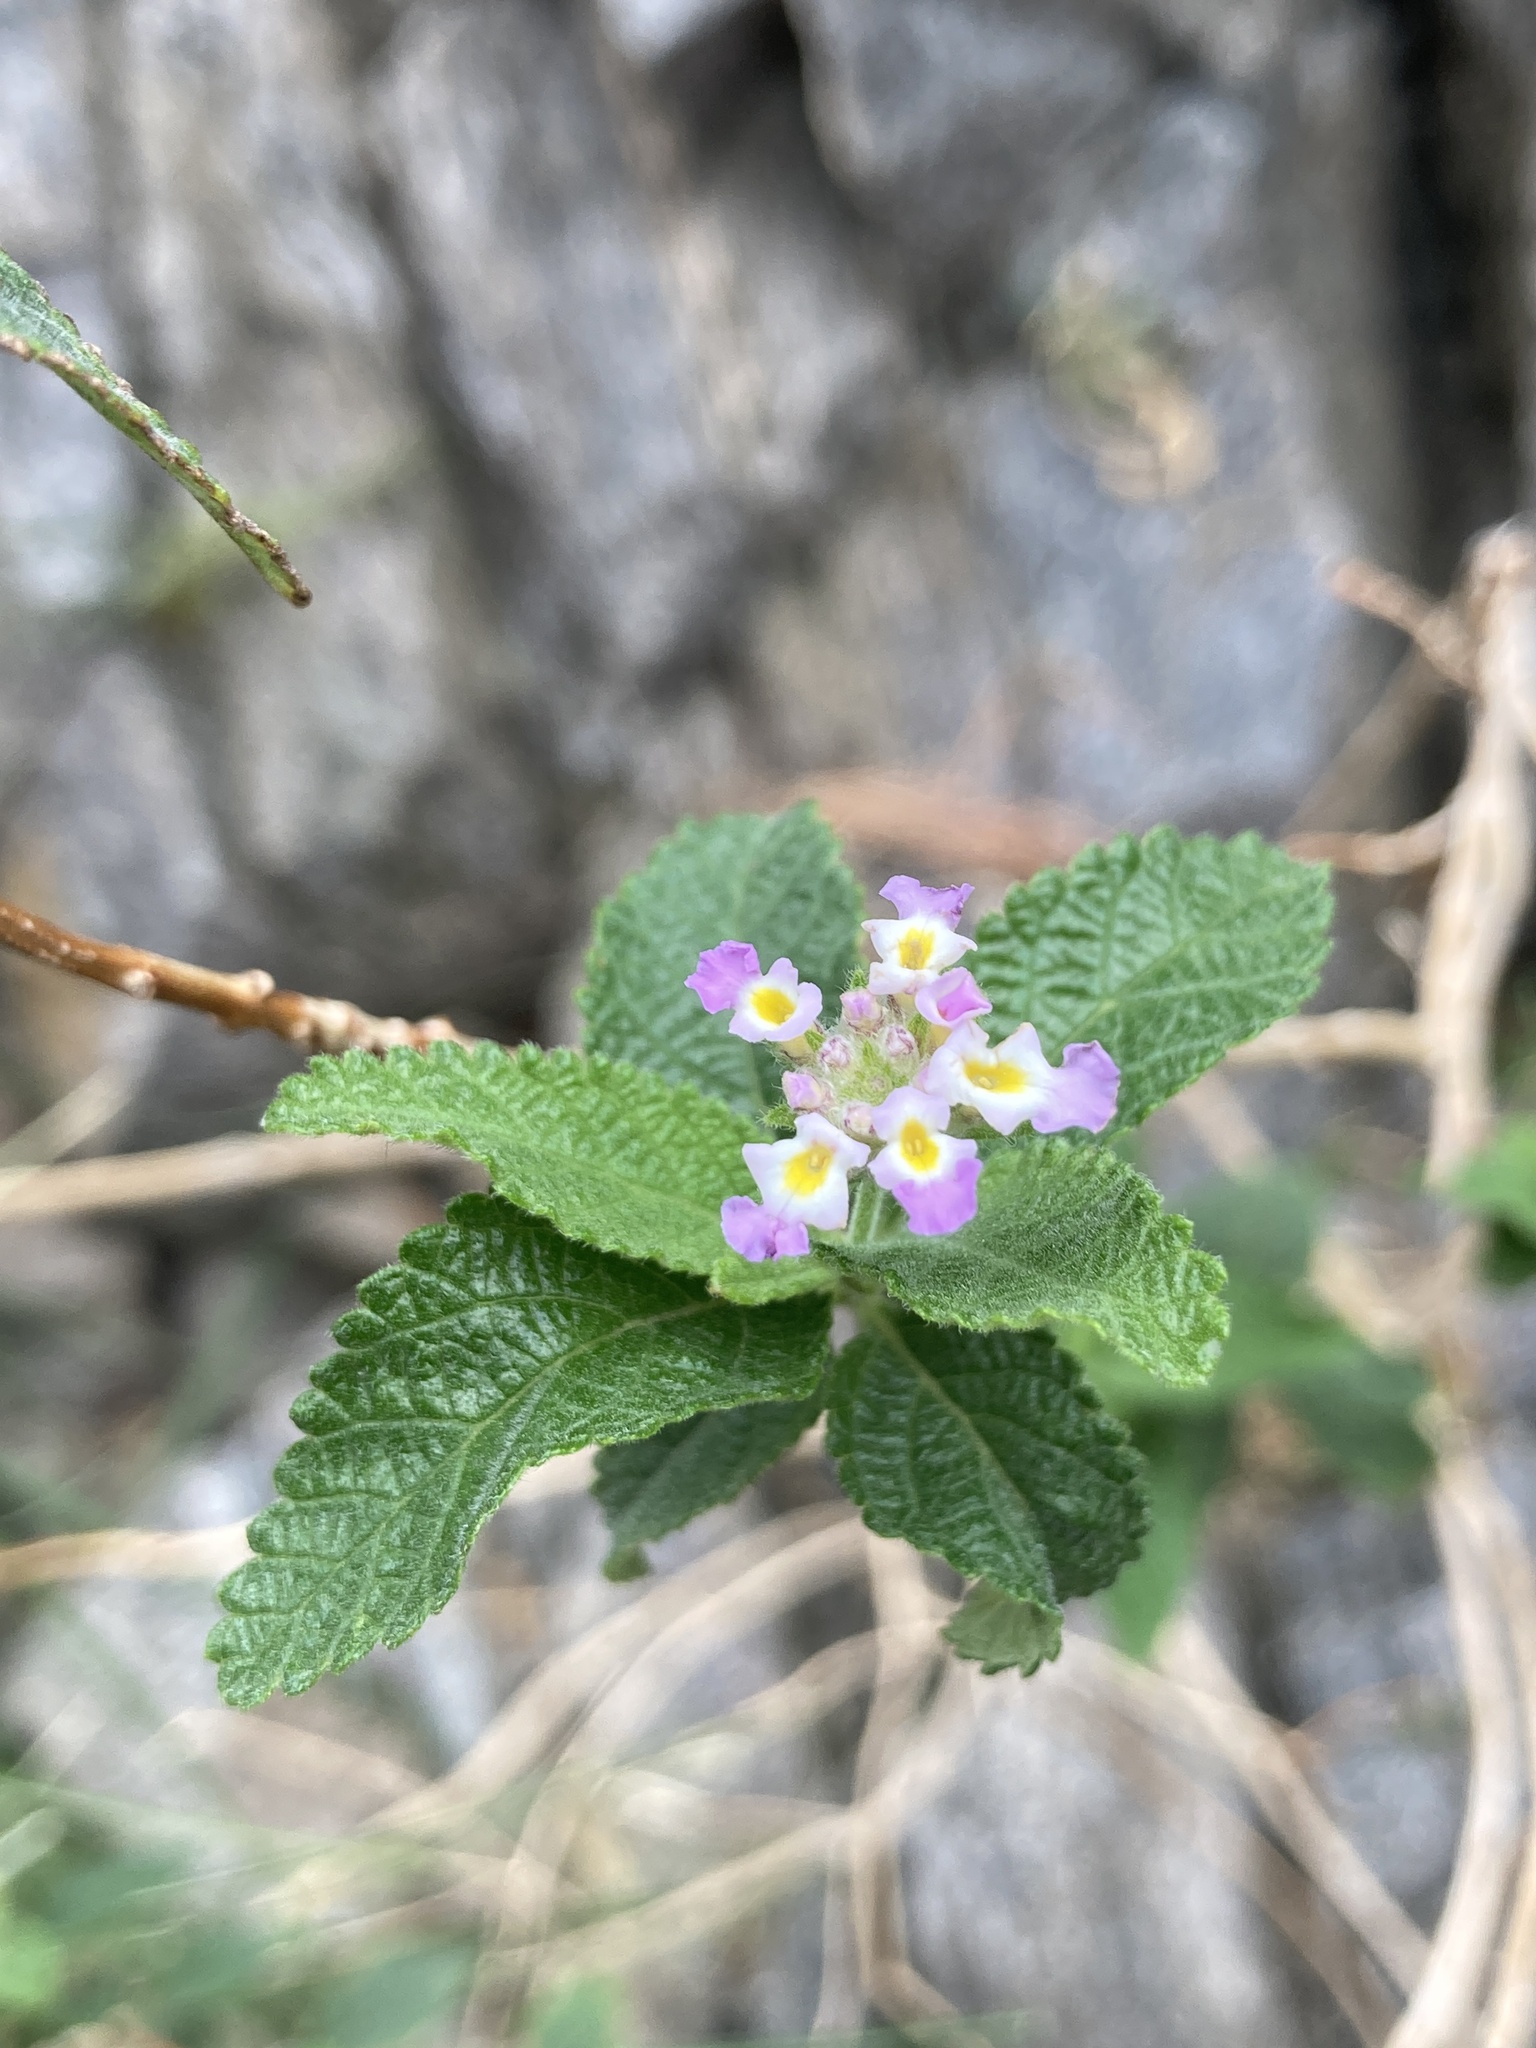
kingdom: Plantae
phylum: Tracheophyta
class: Magnoliopsida
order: Lamiales
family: Verbenaceae
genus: Lippia
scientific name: Lippia junelliana
